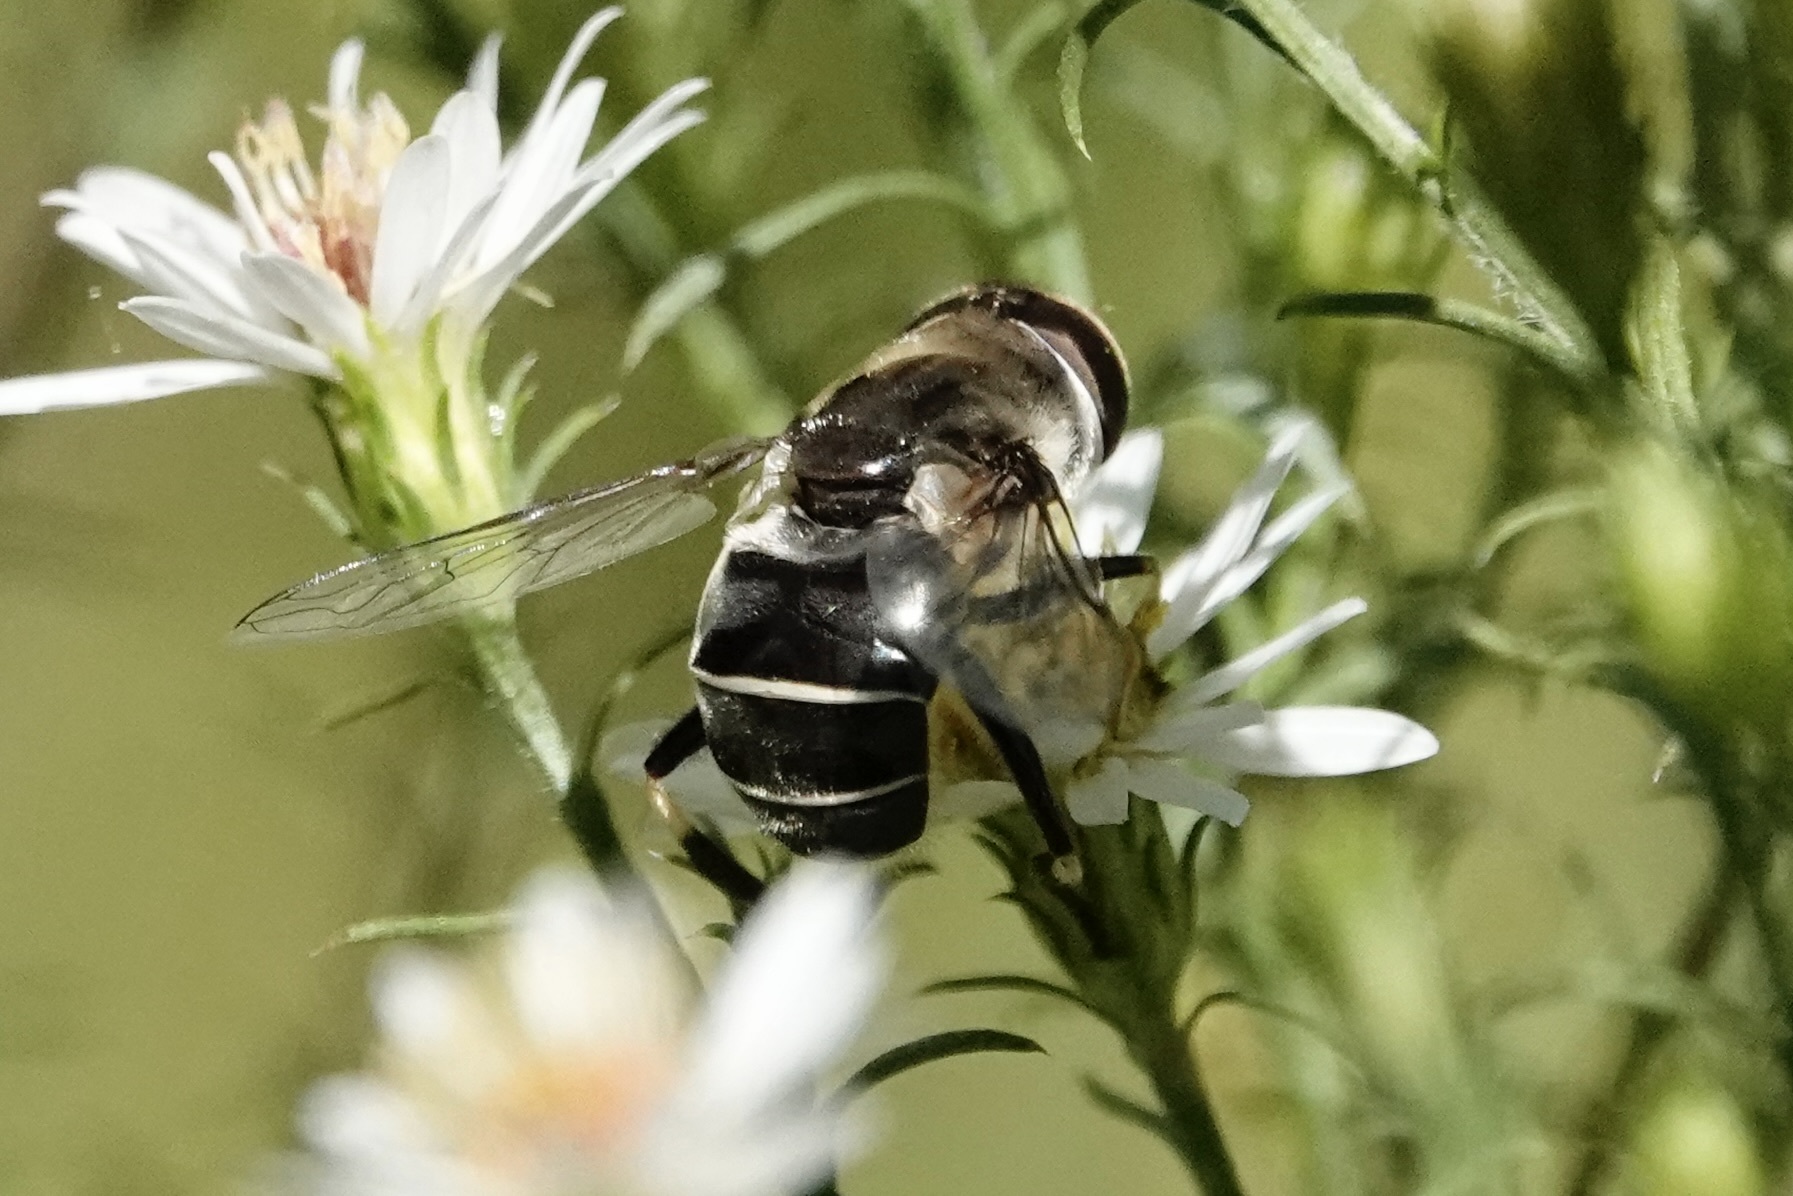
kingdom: Animalia
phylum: Arthropoda
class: Insecta
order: Diptera
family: Syrphidae
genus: Eristalis
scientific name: Eristalis dimidiata
